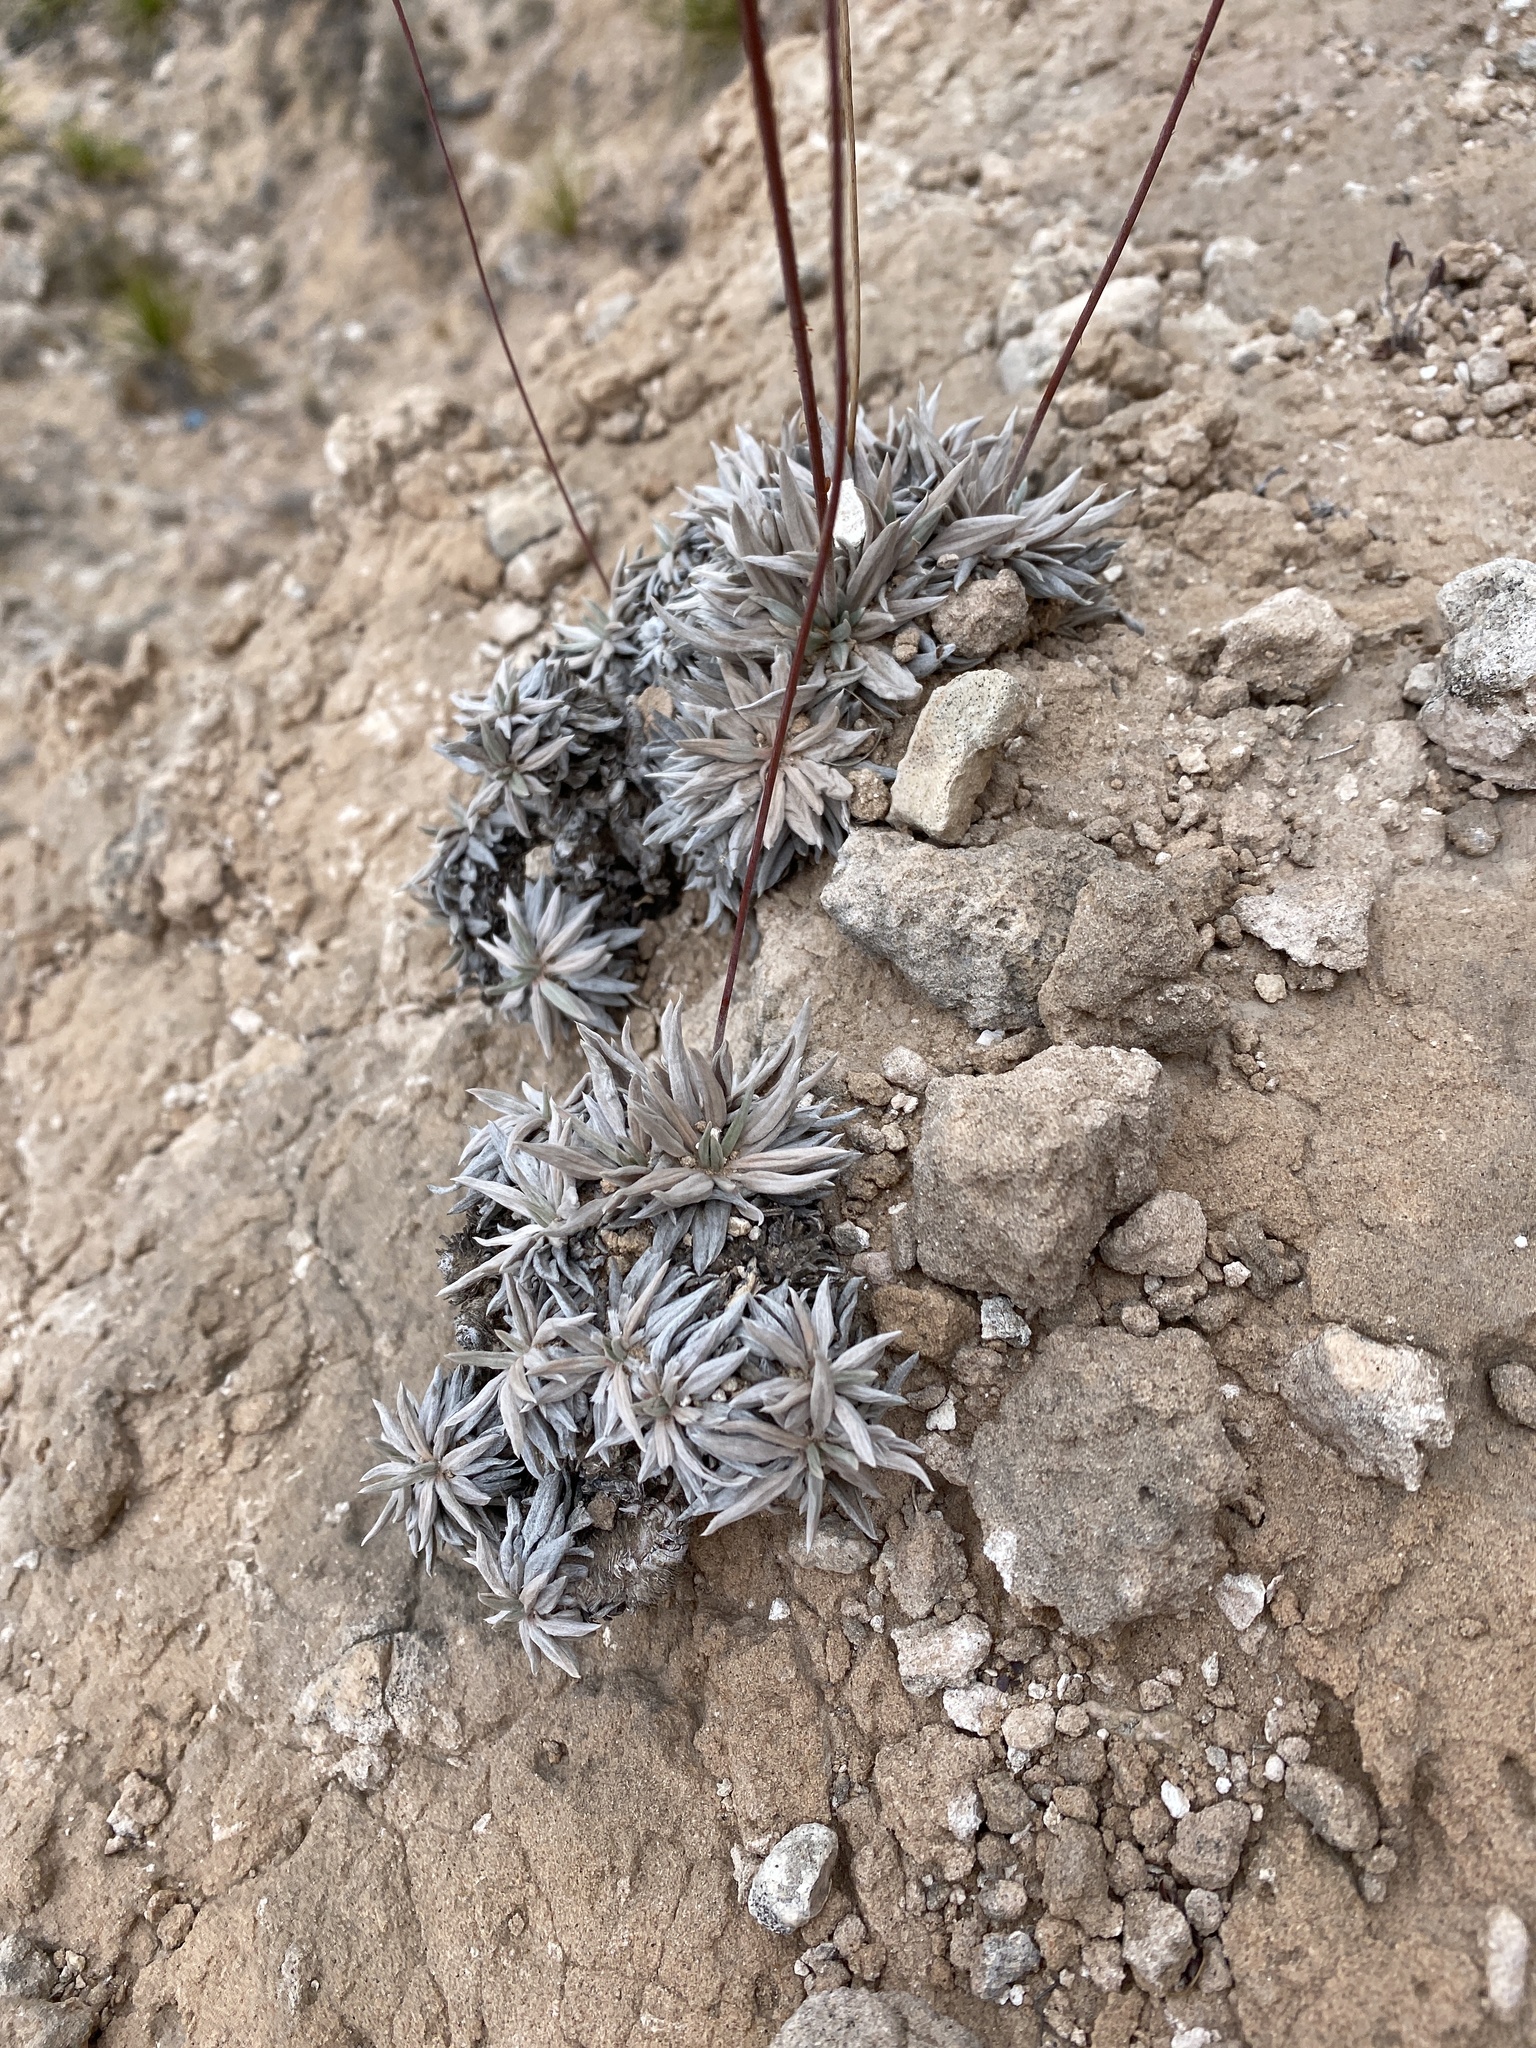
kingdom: Plantae
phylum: Tracheophyta
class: Magnoliopsida
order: Caryophyllales
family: Polygonaceae
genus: Eriogonum
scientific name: Eriogonum havardii
